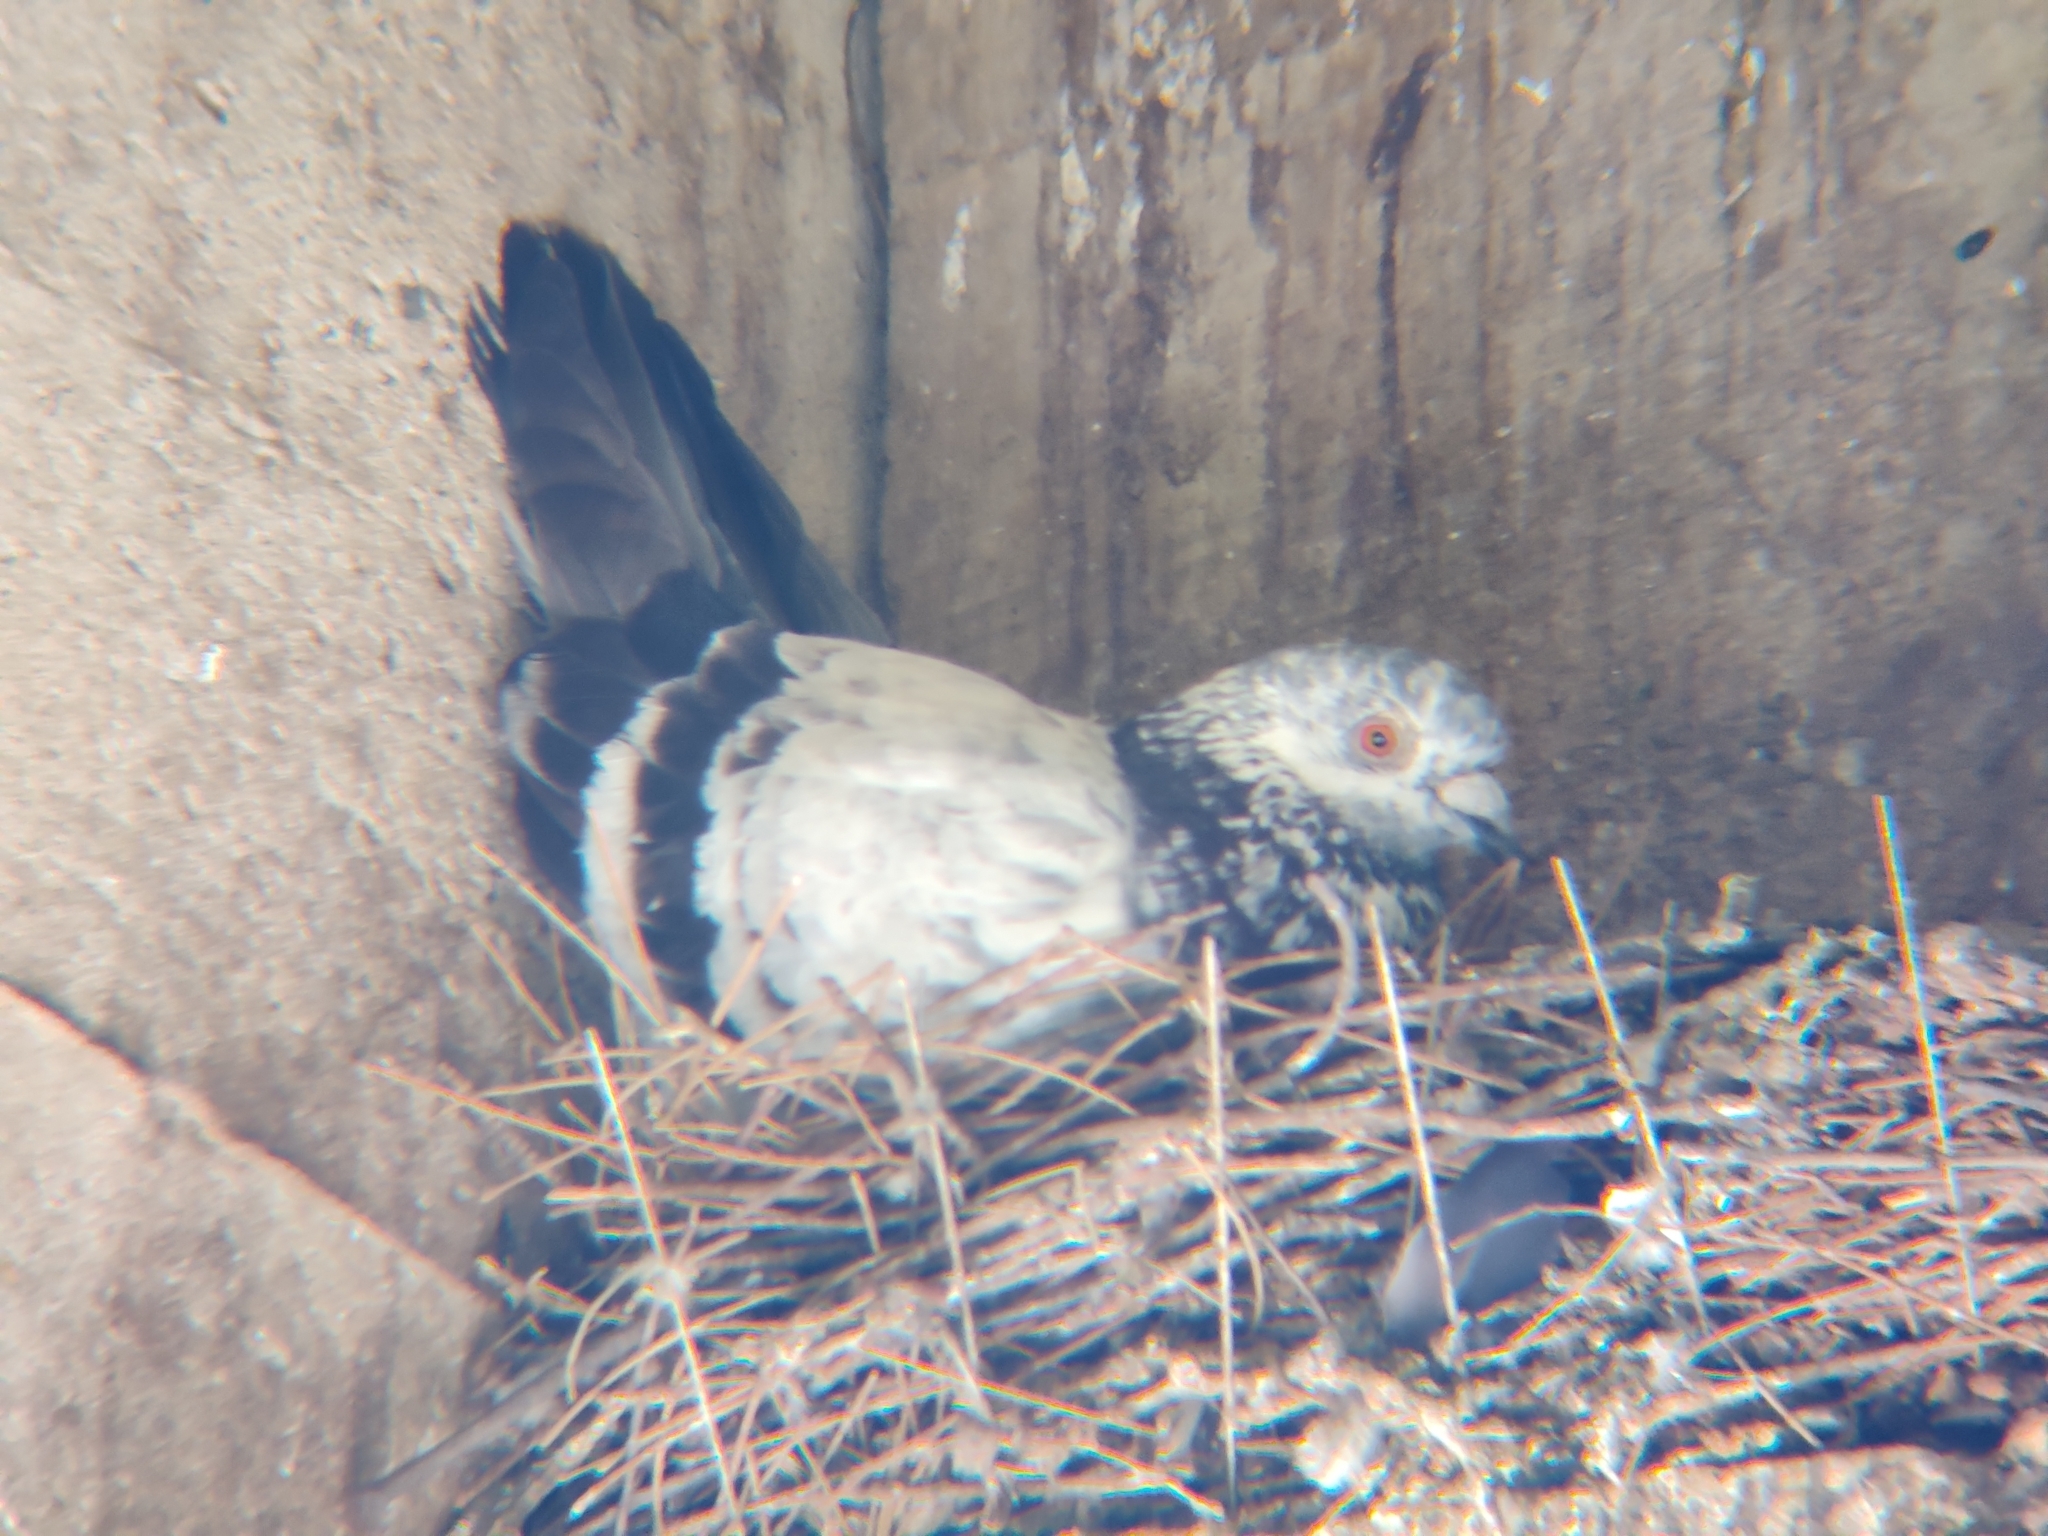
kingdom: Animalia
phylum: Chordata
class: Aves
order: Columbiformes
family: Columbidae
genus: Columba
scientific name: Columba livia
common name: Rock pigeon
